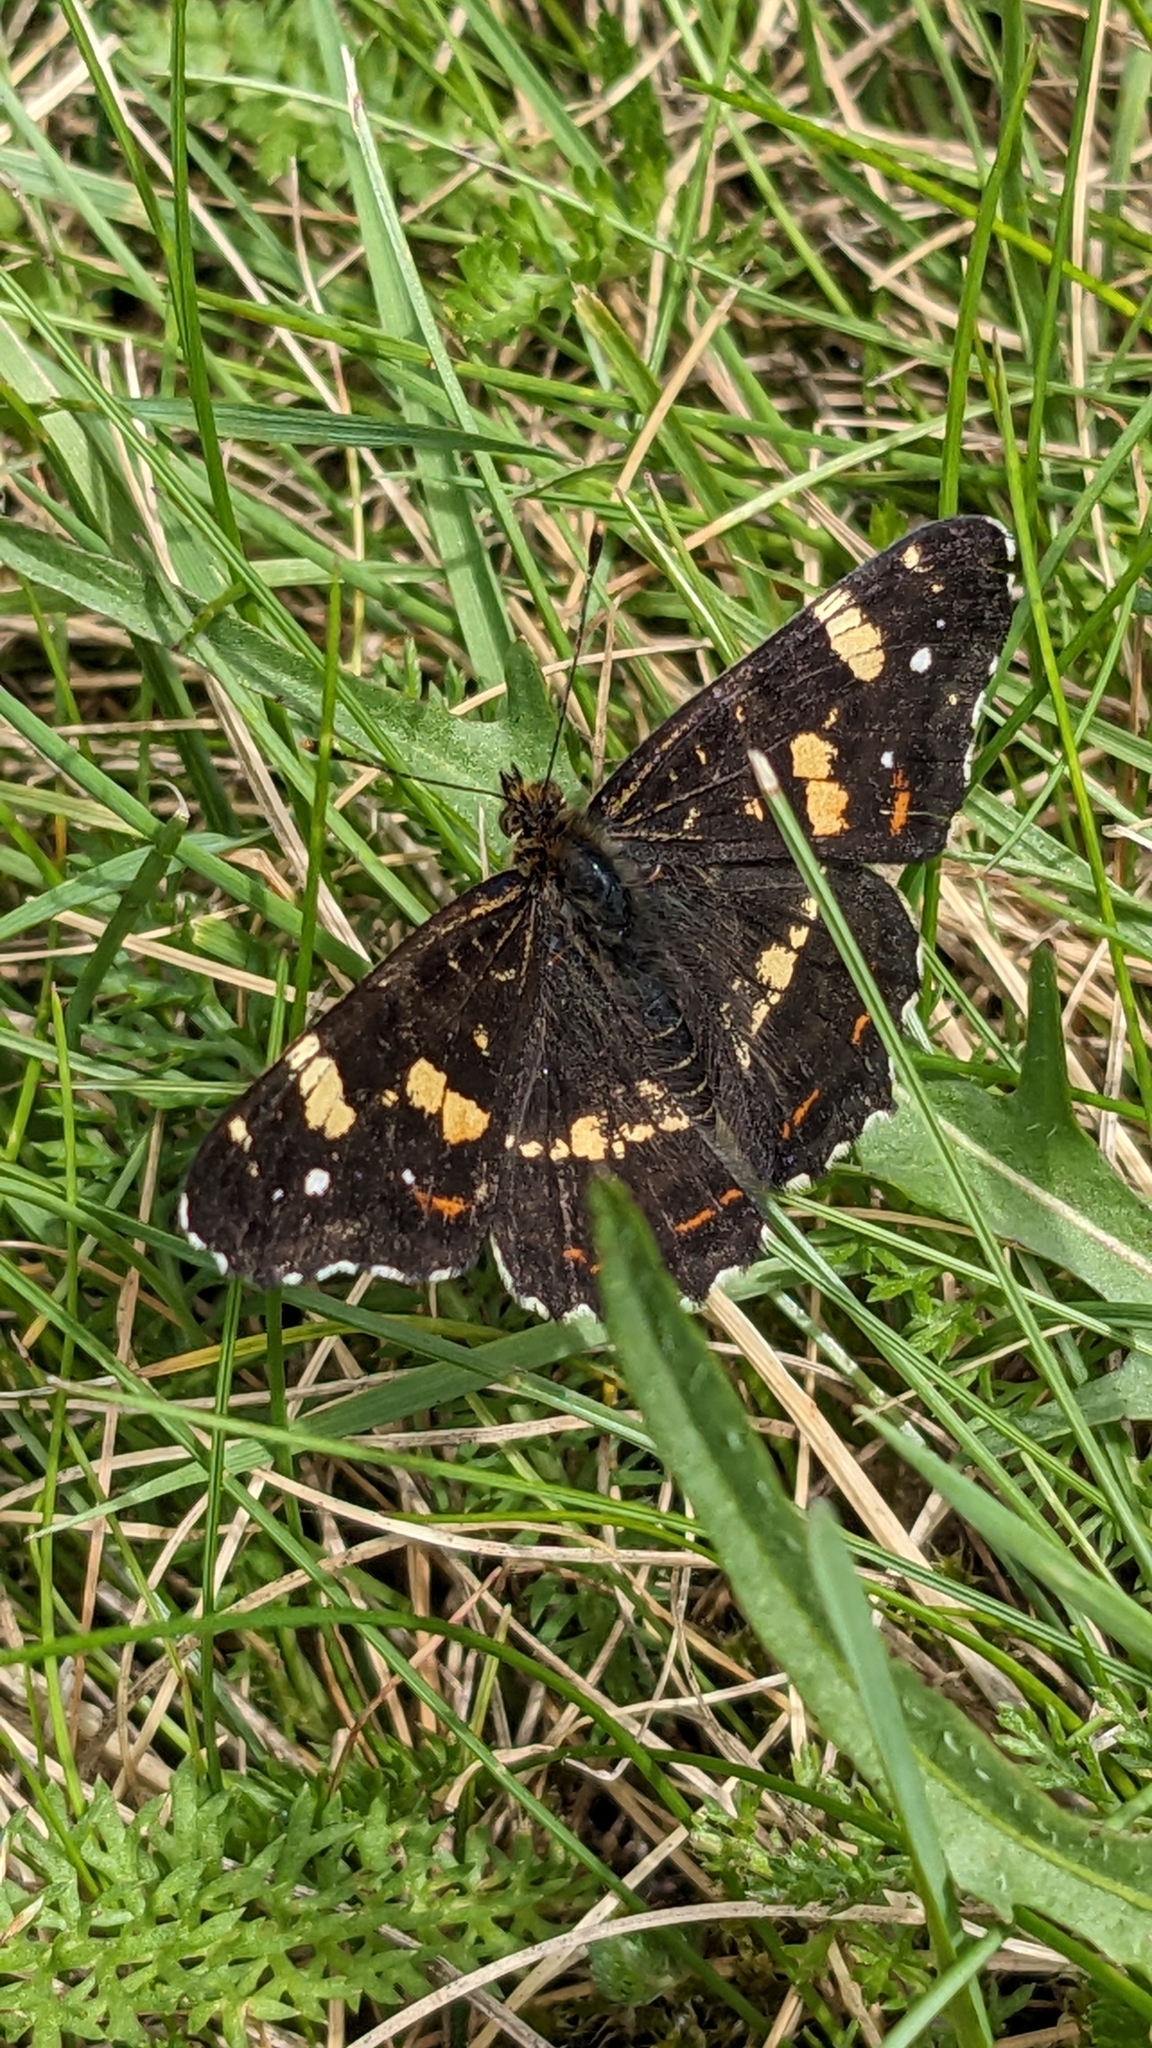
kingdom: Animalia
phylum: Arthropoda
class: Insecta
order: Lepidoptera
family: Nymphalidae
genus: Araschnia
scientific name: Araschnia levana
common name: Map butterfly
